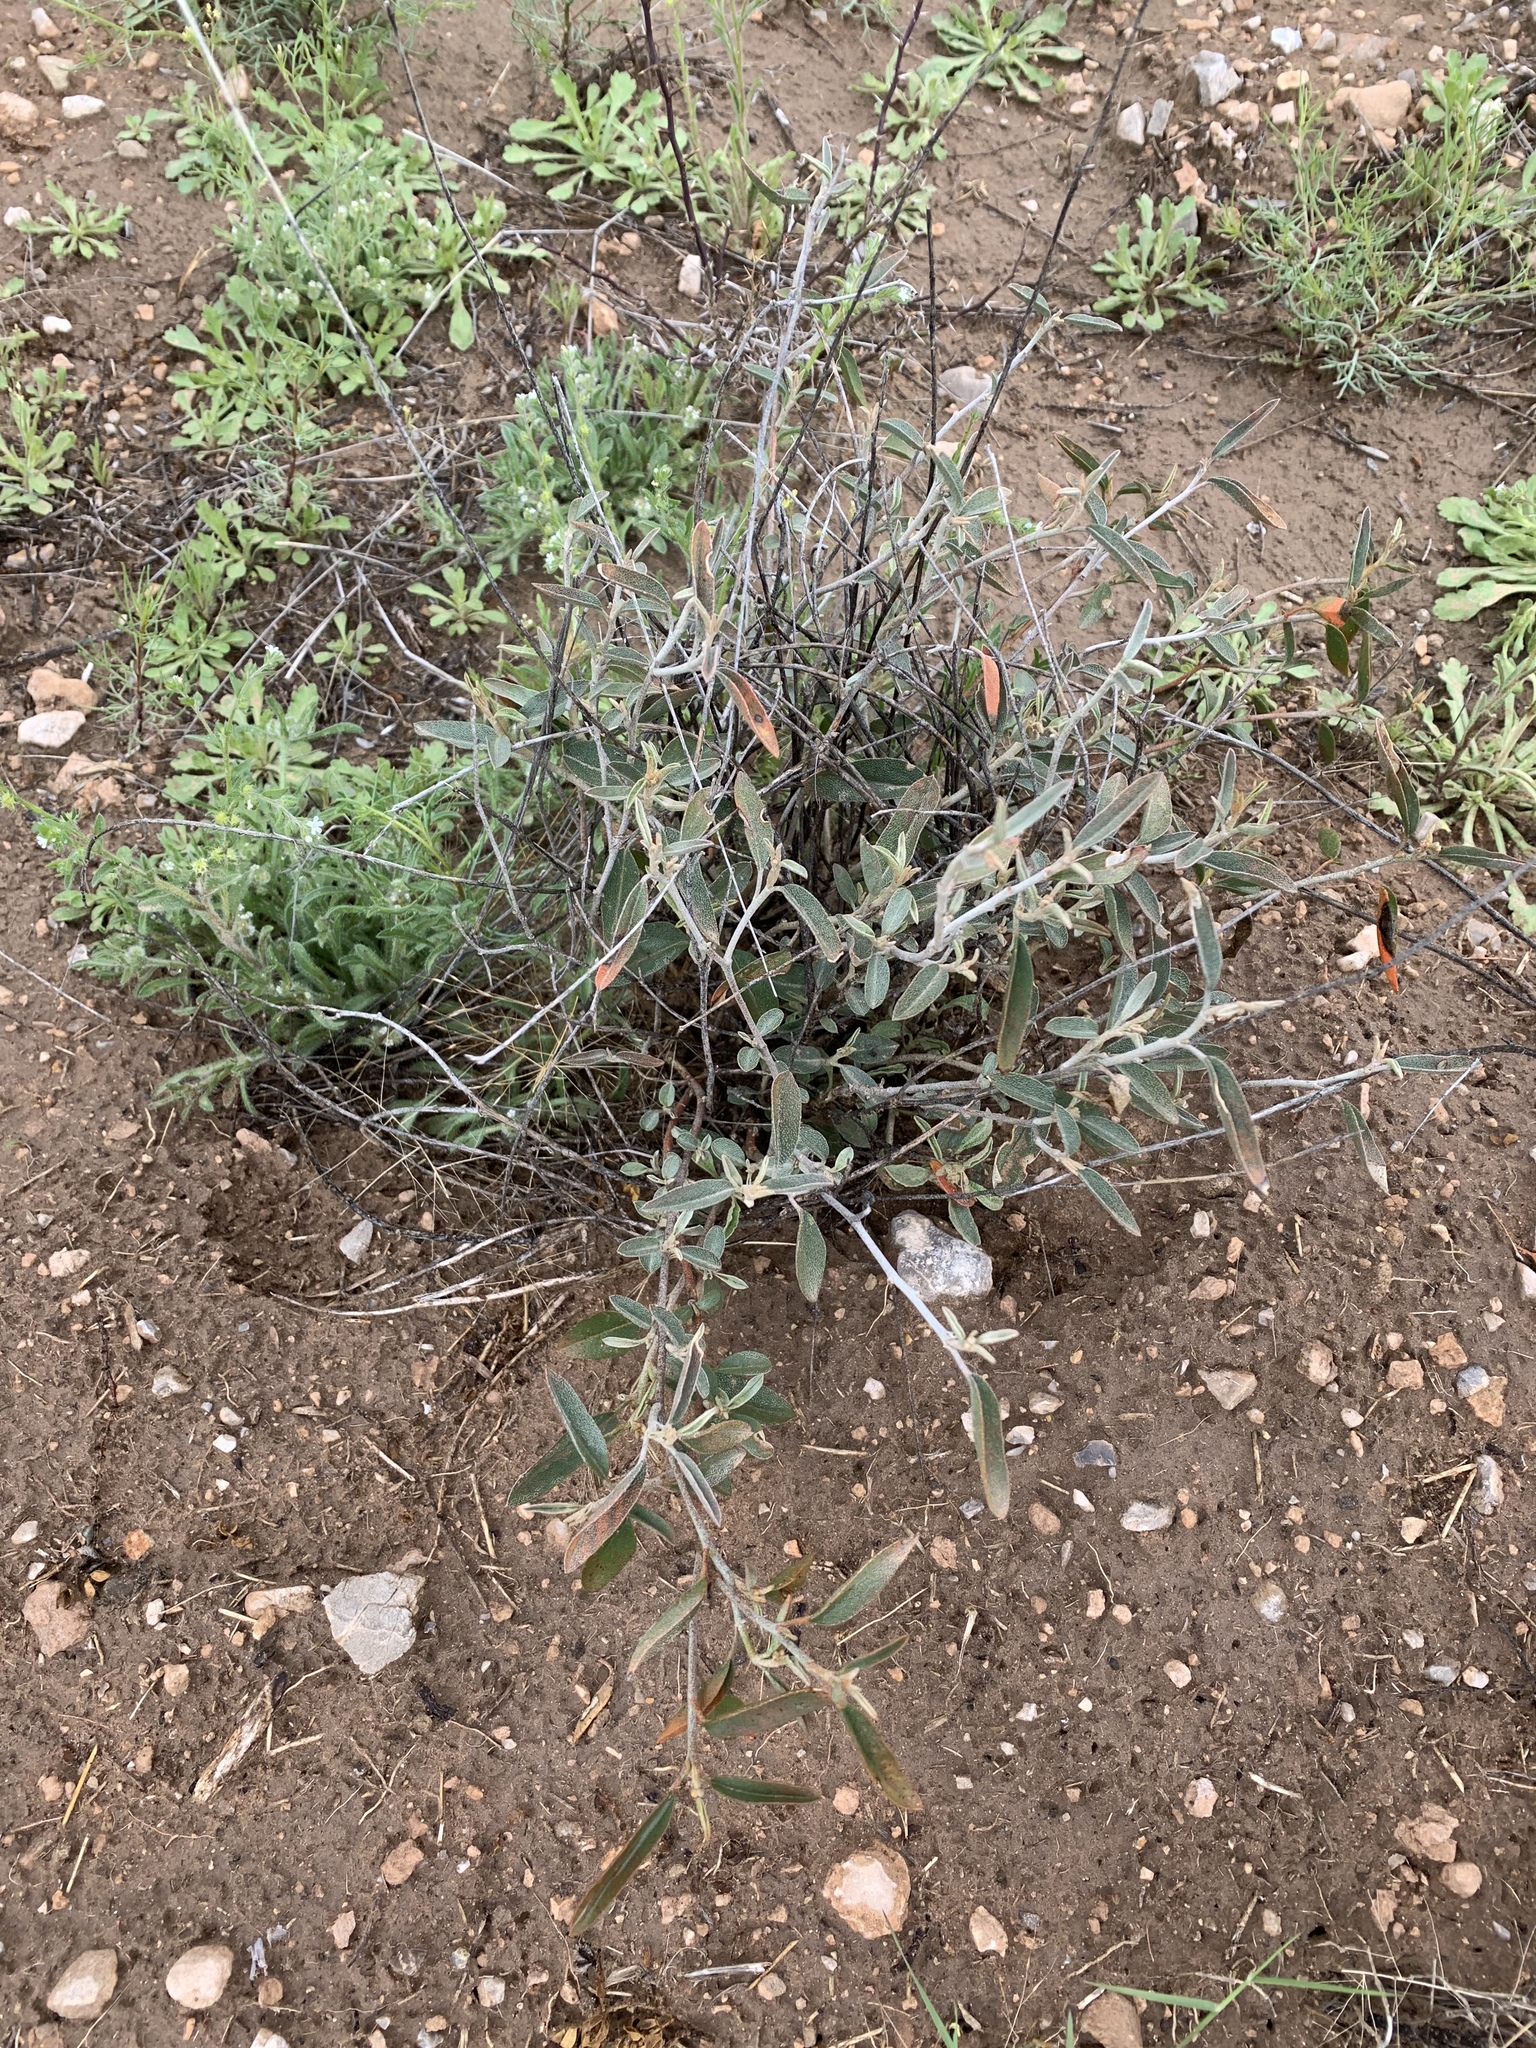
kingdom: Plantae
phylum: Tracheophyta
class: Magnoliopsida
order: Malpighiales
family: Euphorbiaceae
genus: Croton
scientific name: Croton dioicus
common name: Grassland croton
